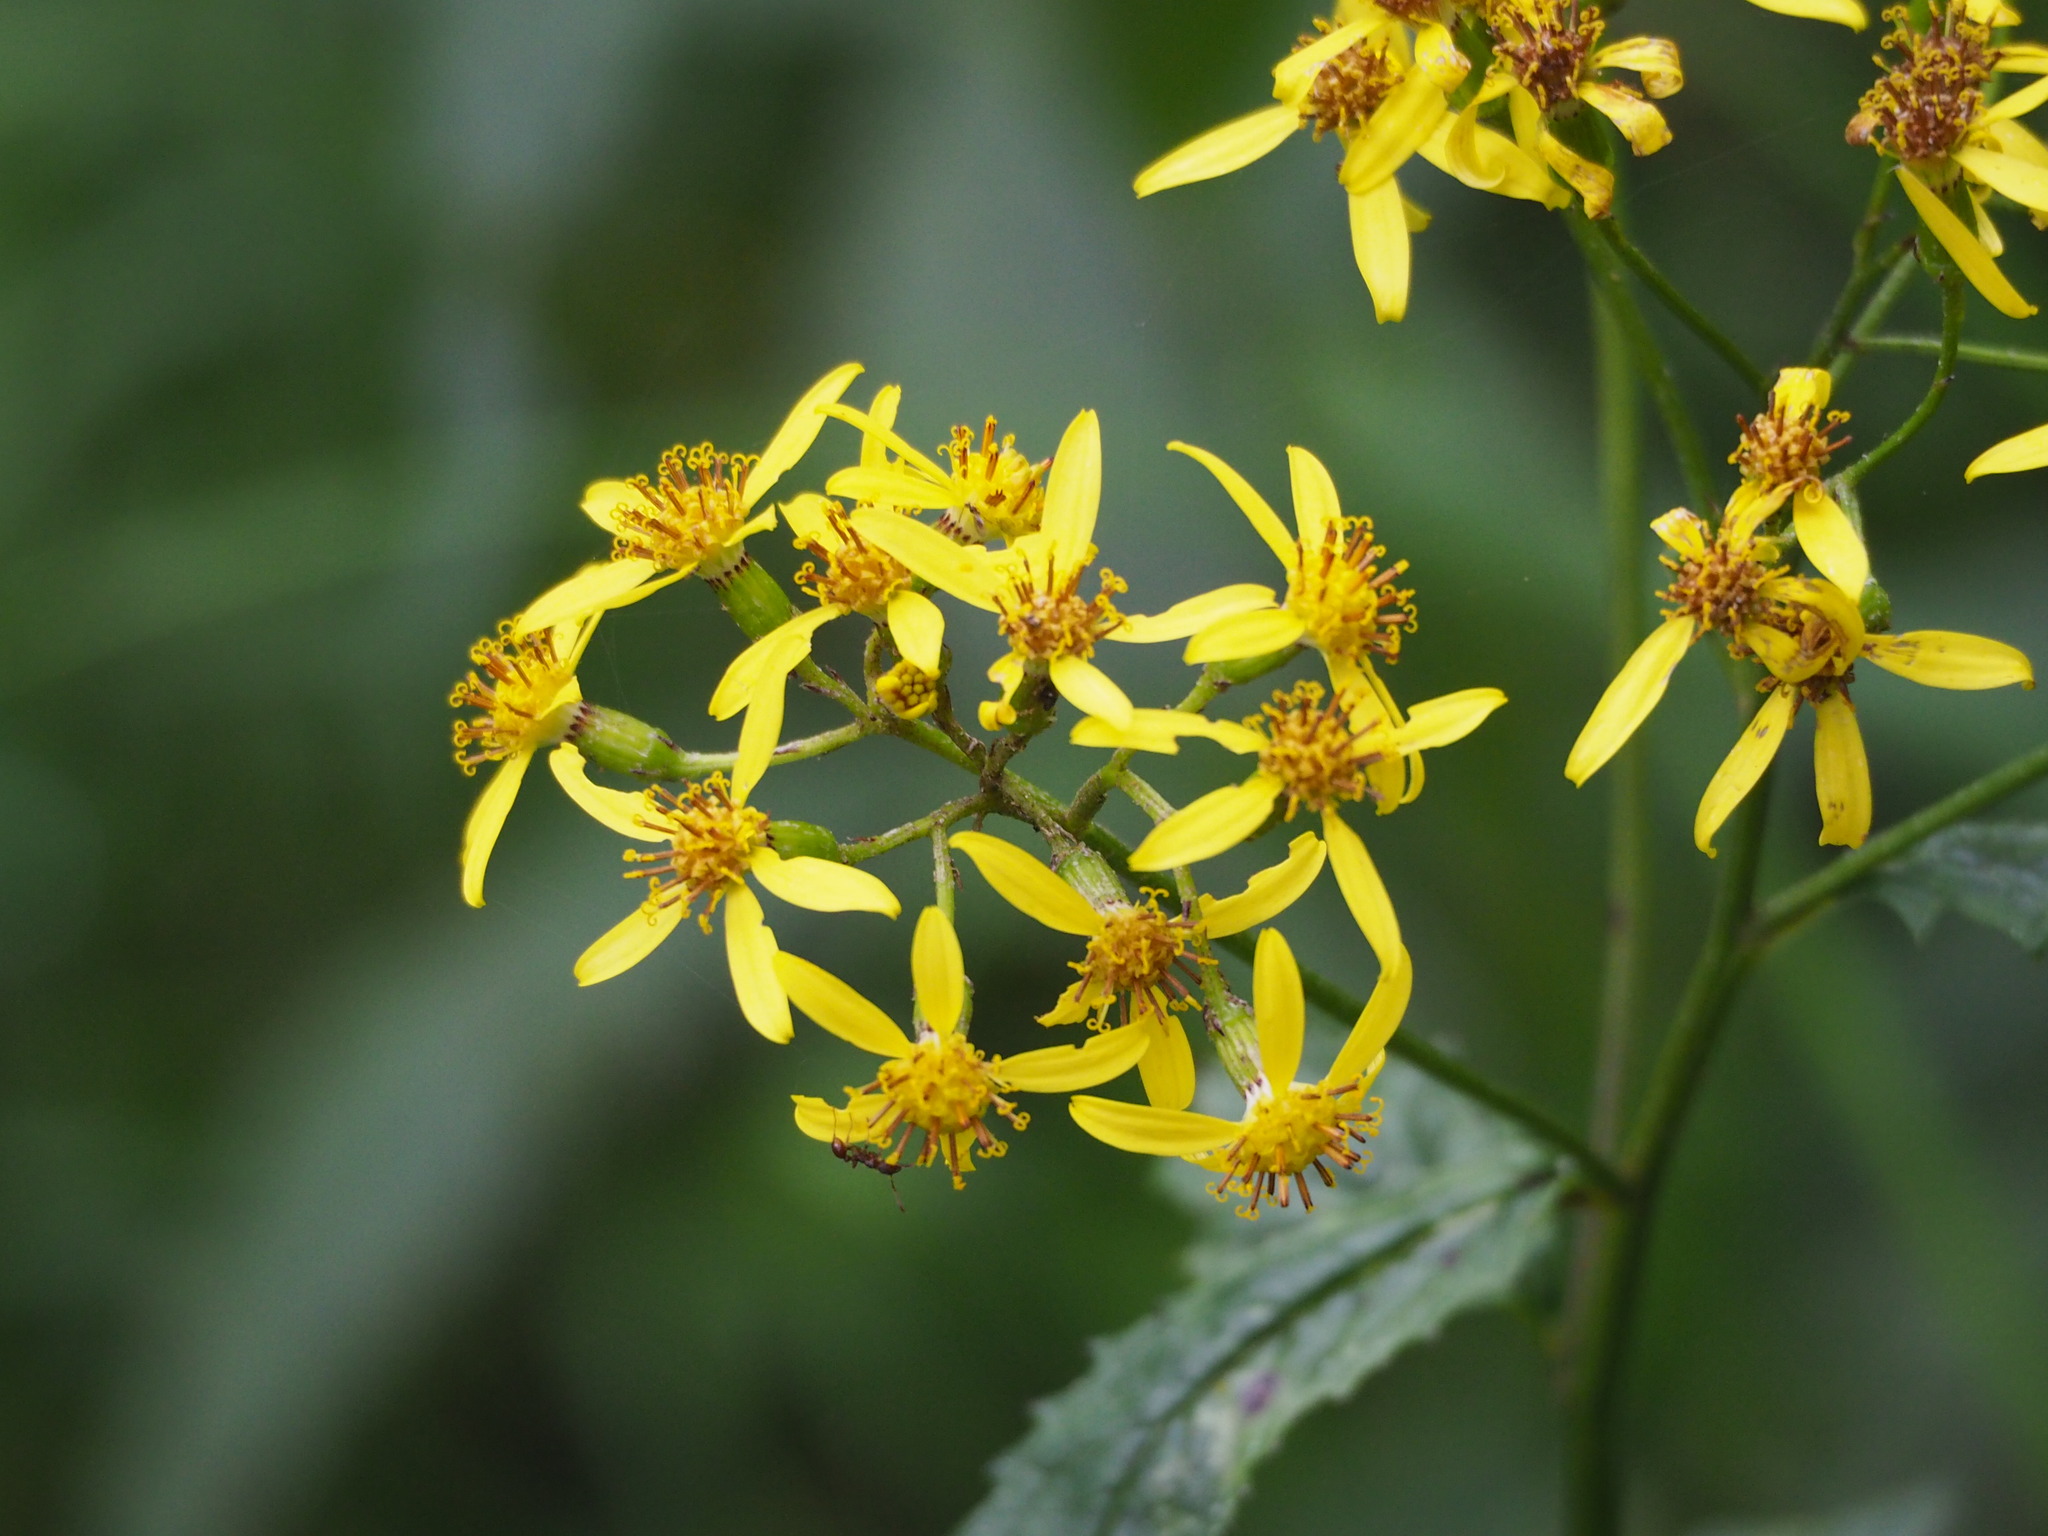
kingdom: Plantae
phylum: Tracheophyta
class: Magnoliopsida
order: Asterales
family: Asteraceae
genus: Jacobaea
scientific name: Jacobaea morrisonensis
